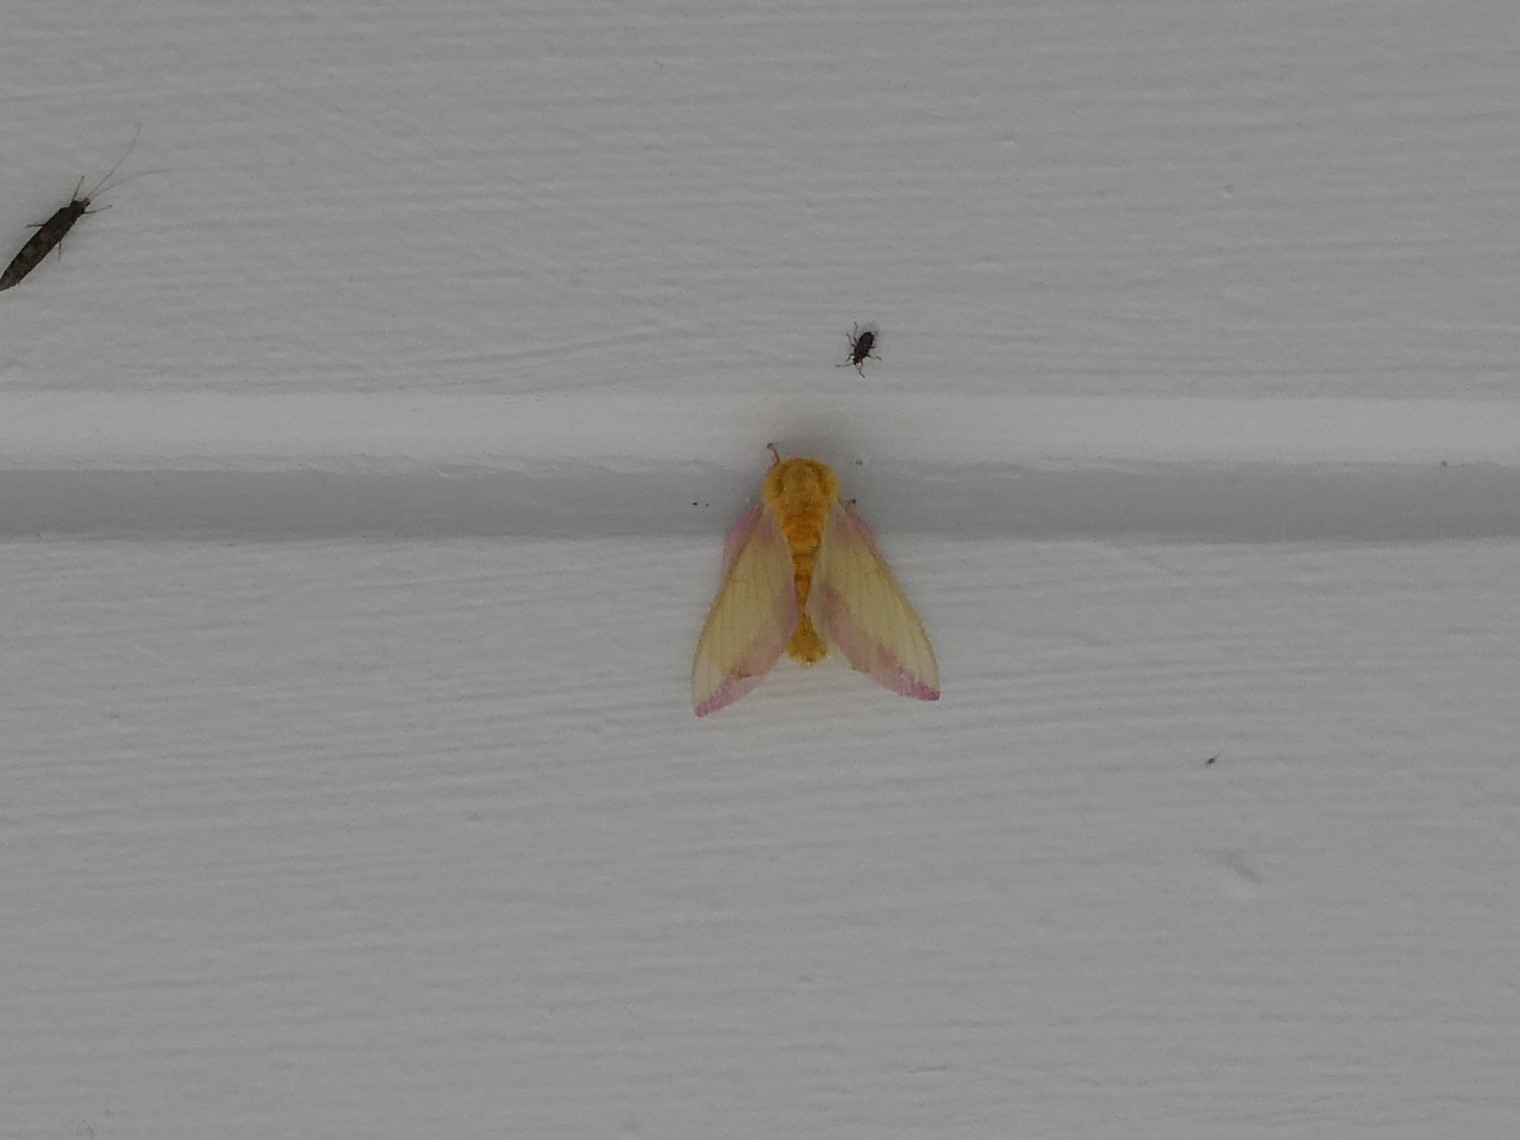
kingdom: Animalia
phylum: Arthropoda
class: Insecta
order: Lepidoptera
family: Saturniidae
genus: Dryocampa
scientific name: Dryocampa rubicunda
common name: Rosy maple moth
